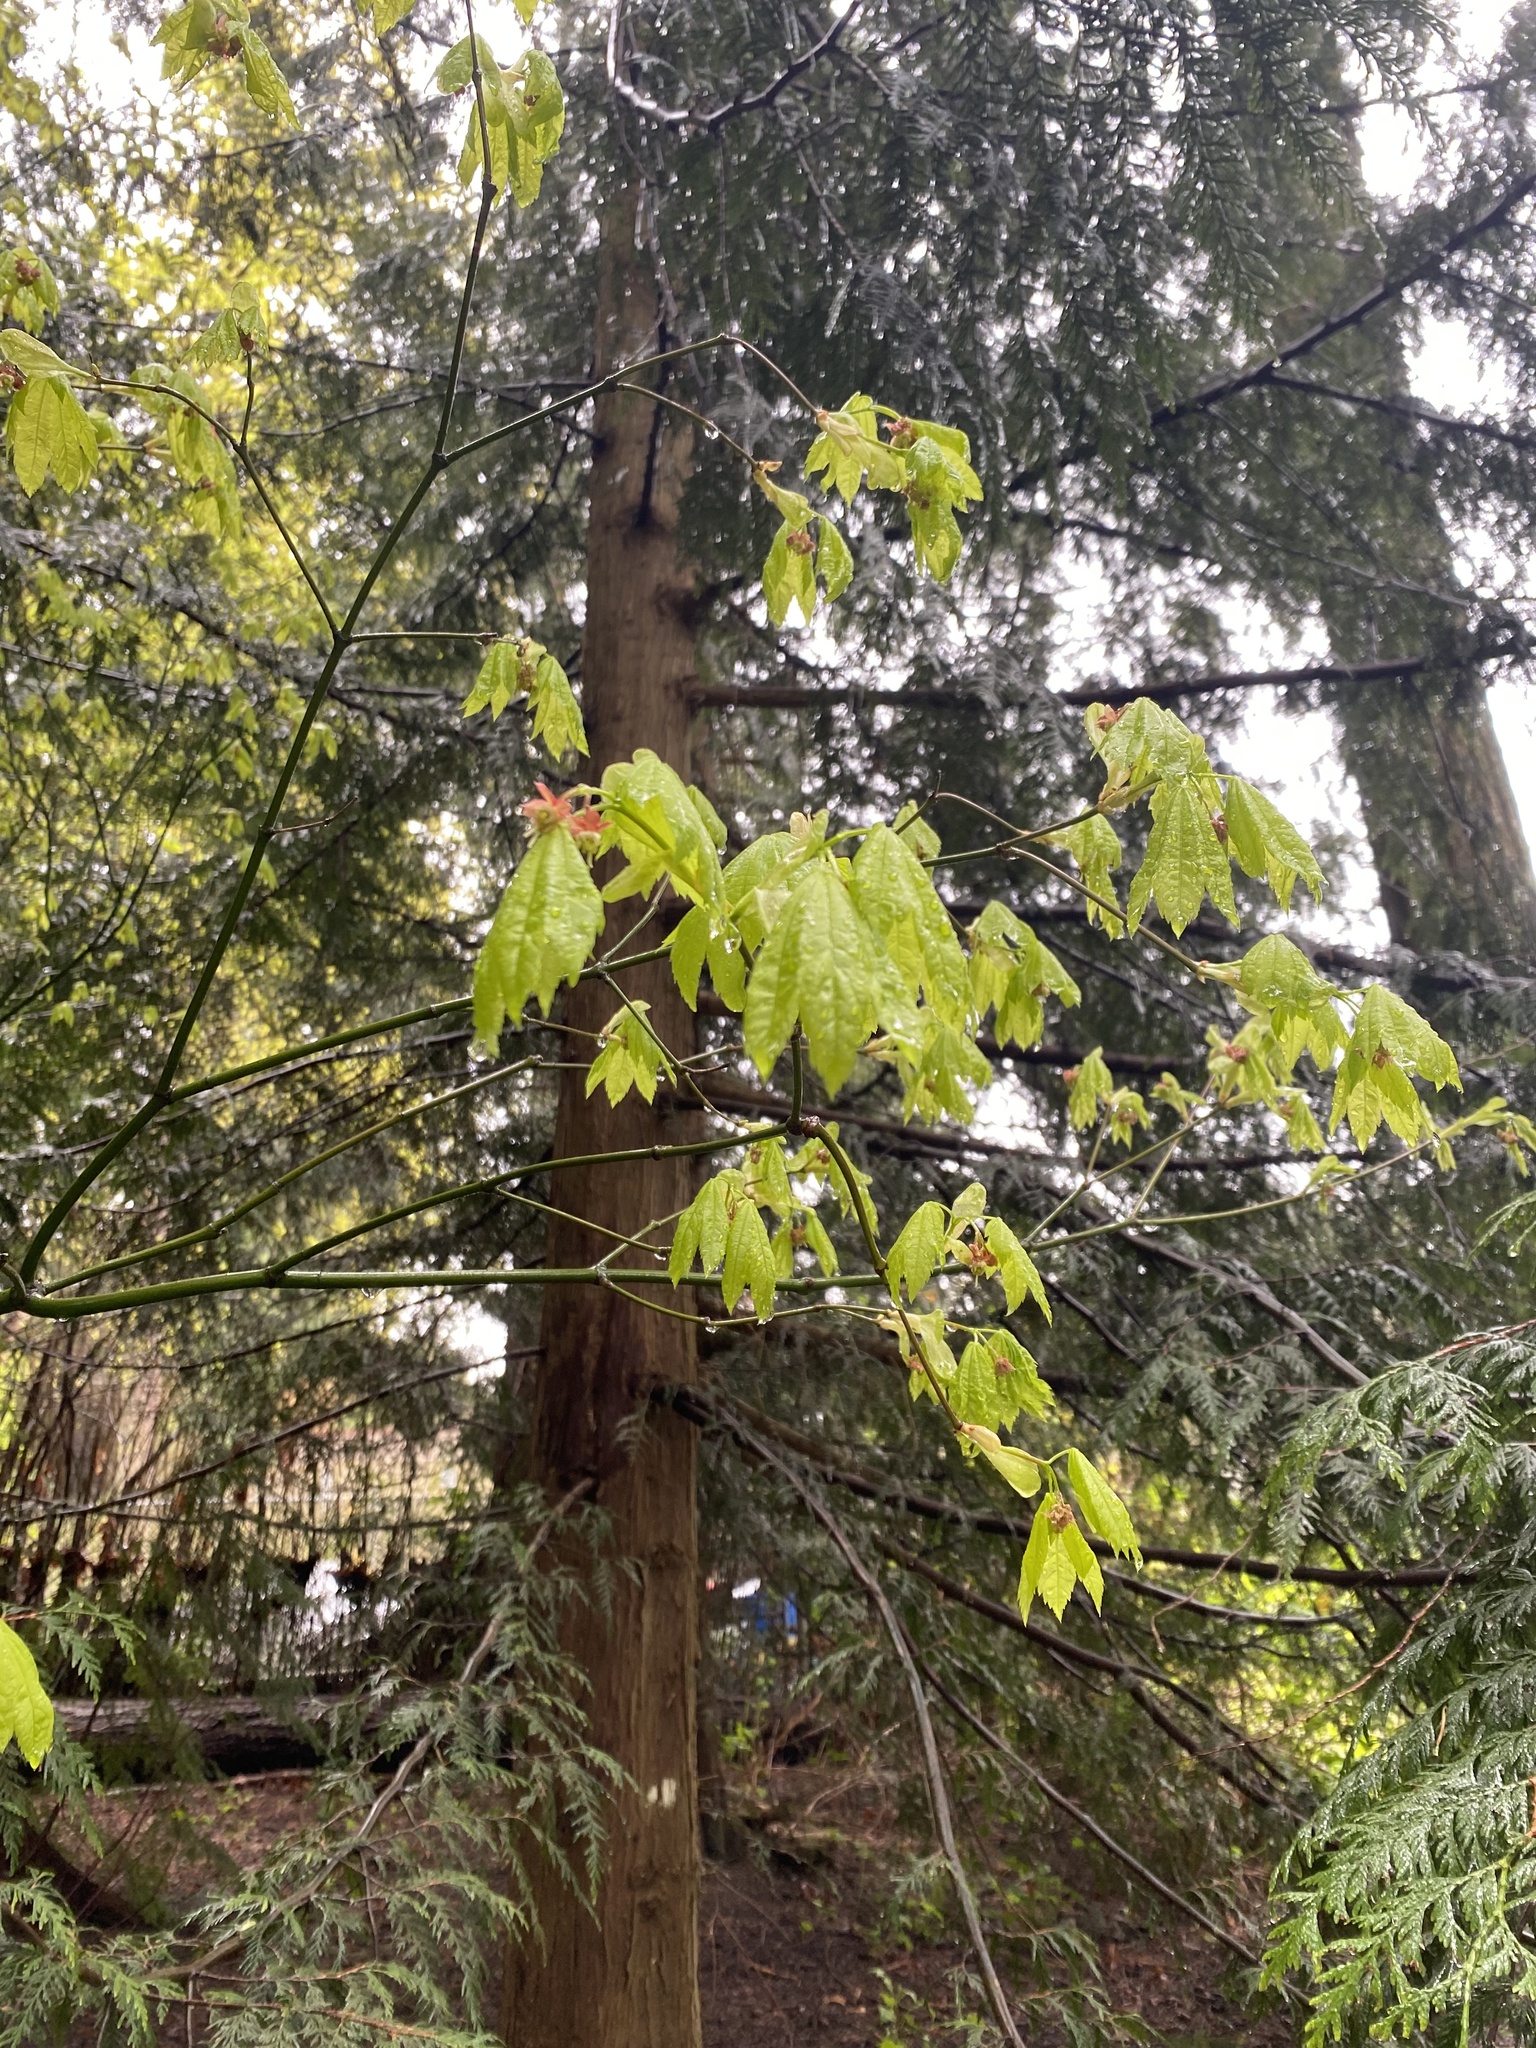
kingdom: Plantae
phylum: Tracheophyta
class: Magnoliopsida
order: Sapindales
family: Sapindaceae
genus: Acer
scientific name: Acer circinatum
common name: Vine maple
